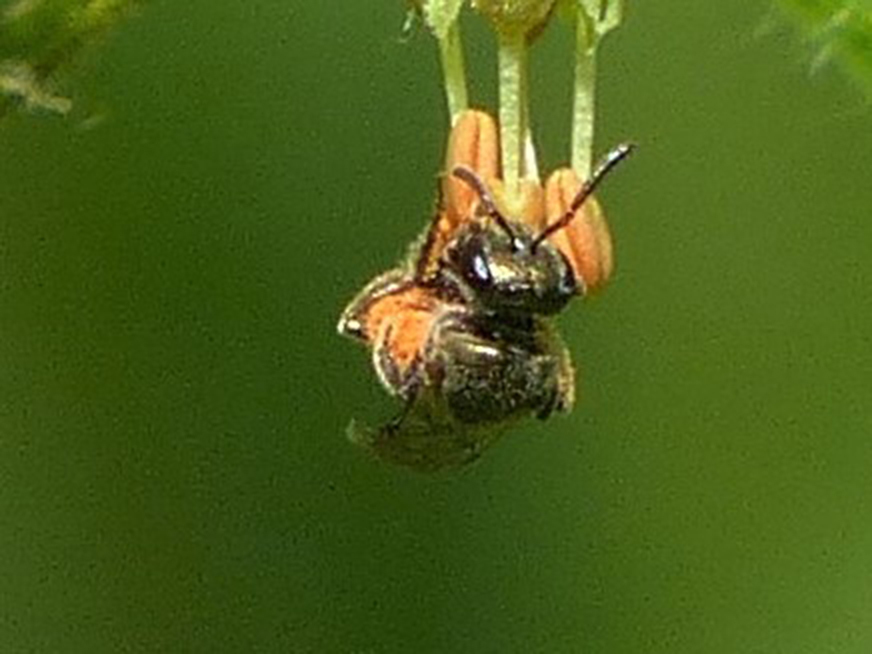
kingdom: Animalia
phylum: Arthropoda
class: Insecta
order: Hymenoptera
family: Halictidae
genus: Dialictus
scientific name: Dialictus
